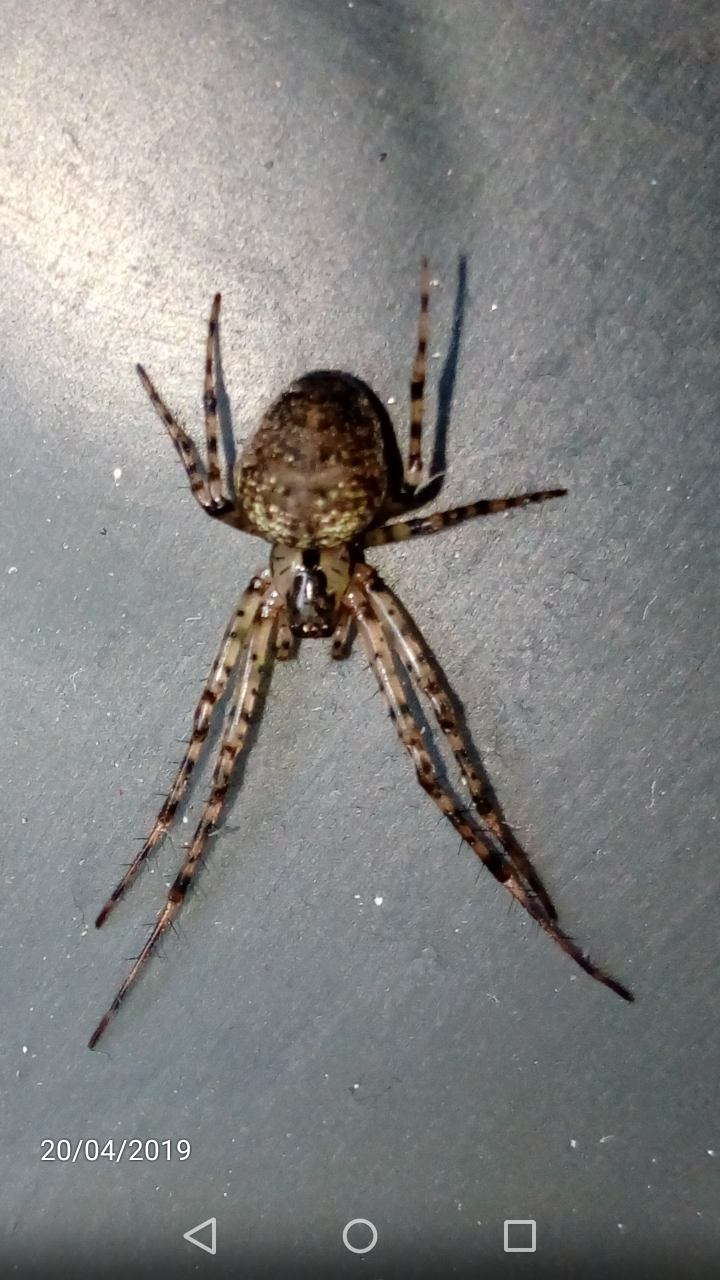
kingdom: Animalia
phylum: Arthropoda
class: Arachnida
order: Araneae
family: Tetragnathidae
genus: Metellina
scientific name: Metellina merianae
